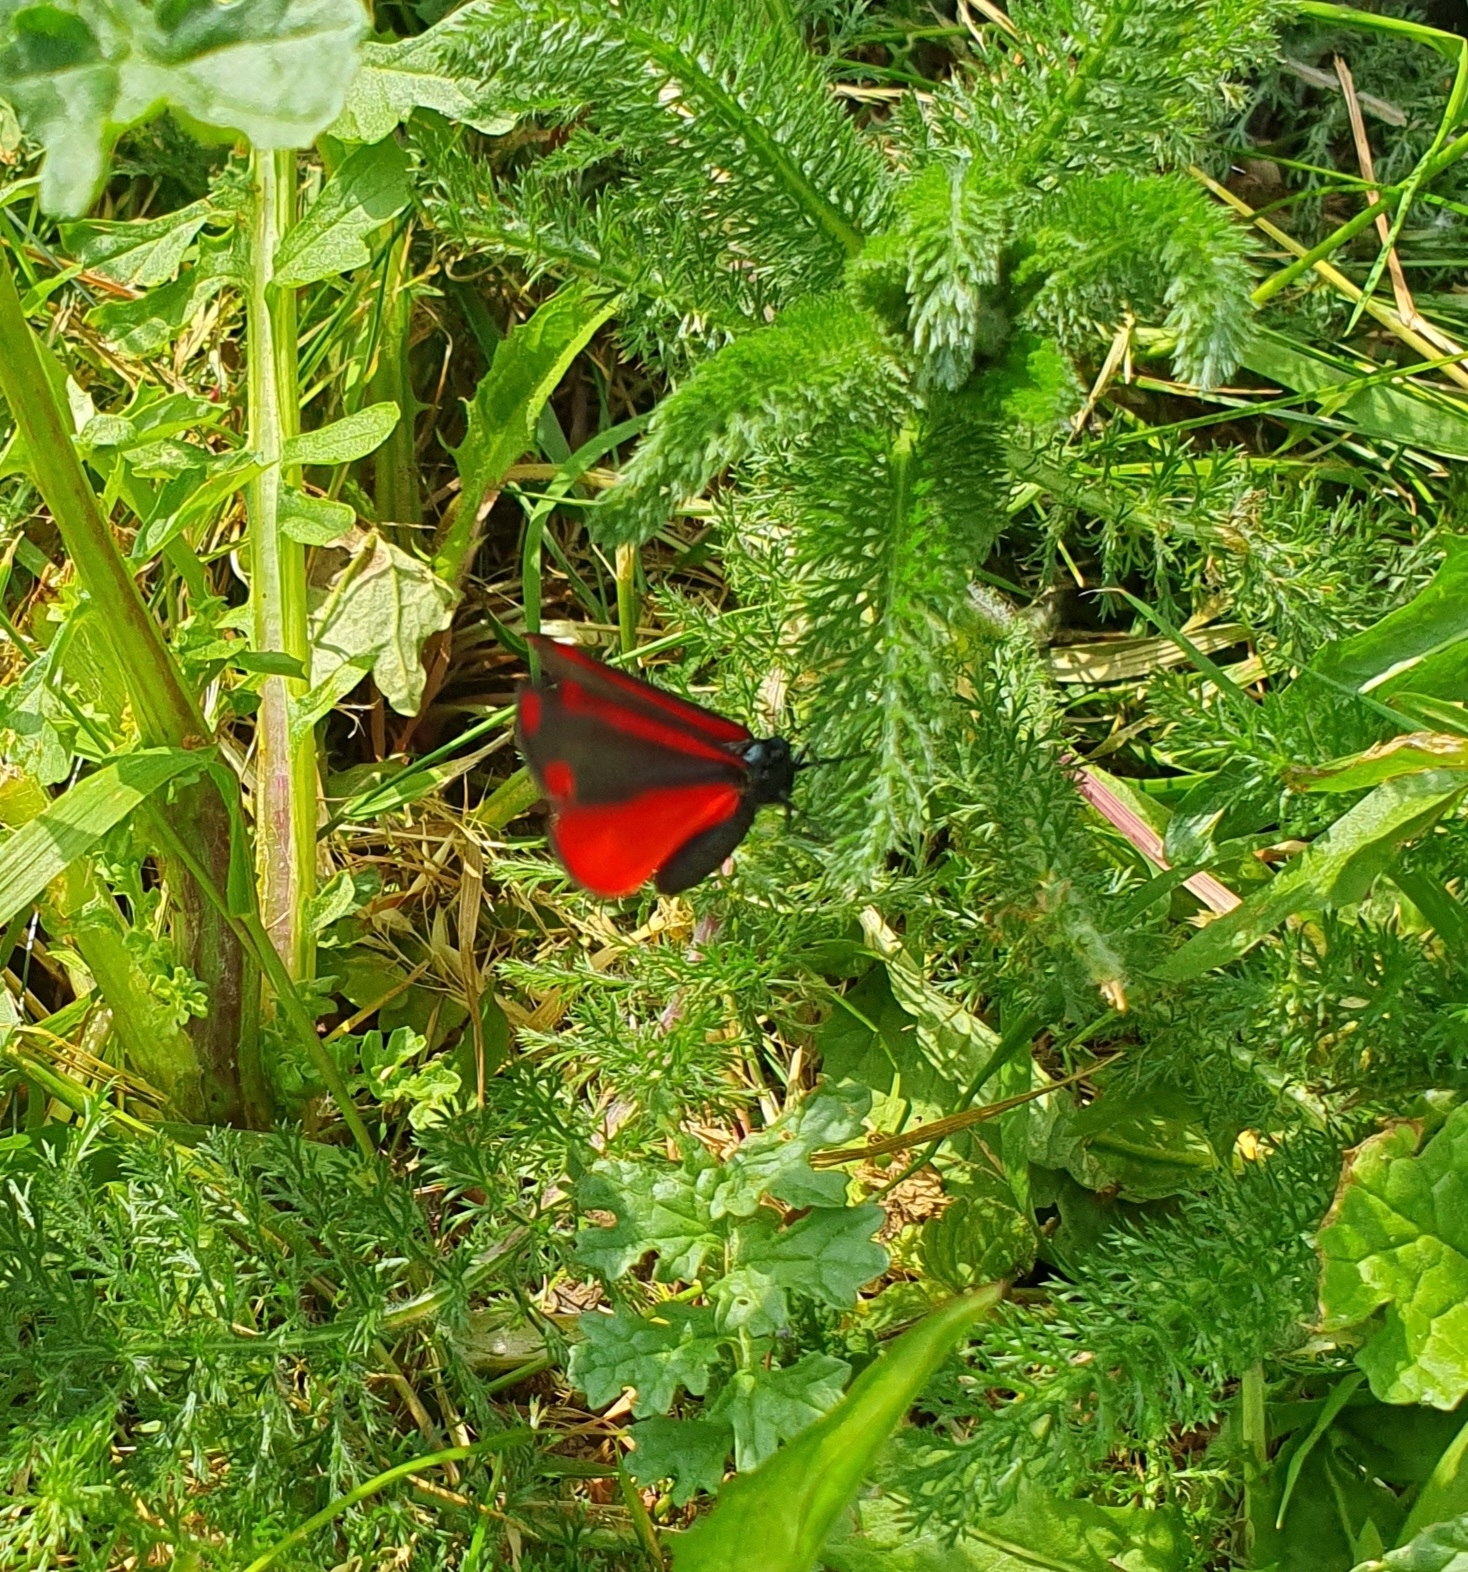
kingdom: Animalia
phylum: Arthropoda
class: Insecta
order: Lepidoptera
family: Erebidae
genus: Tyria
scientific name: Tyria jacobaeae
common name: Cinnabar
